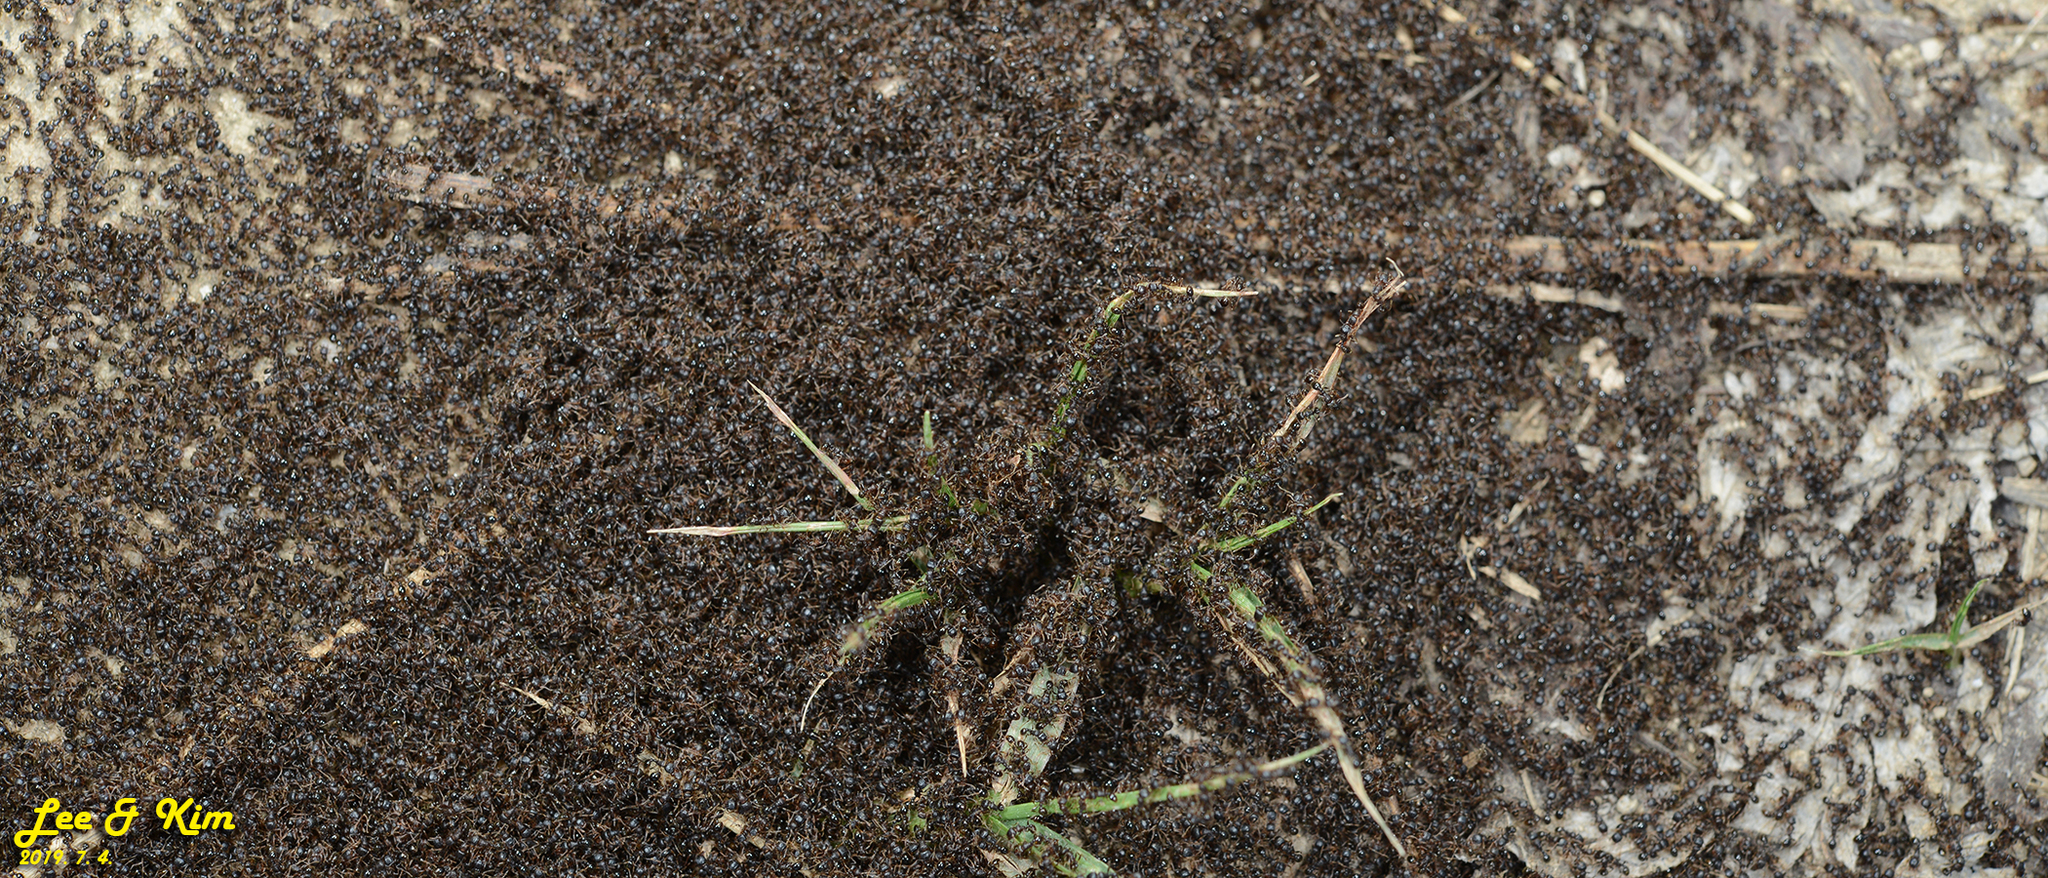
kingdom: Animalia
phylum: Arthropoda
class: Insecta
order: Hymenoptera
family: Formicidae
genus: Tetramorium
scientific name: Tetramorium tsushimae
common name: Ant
